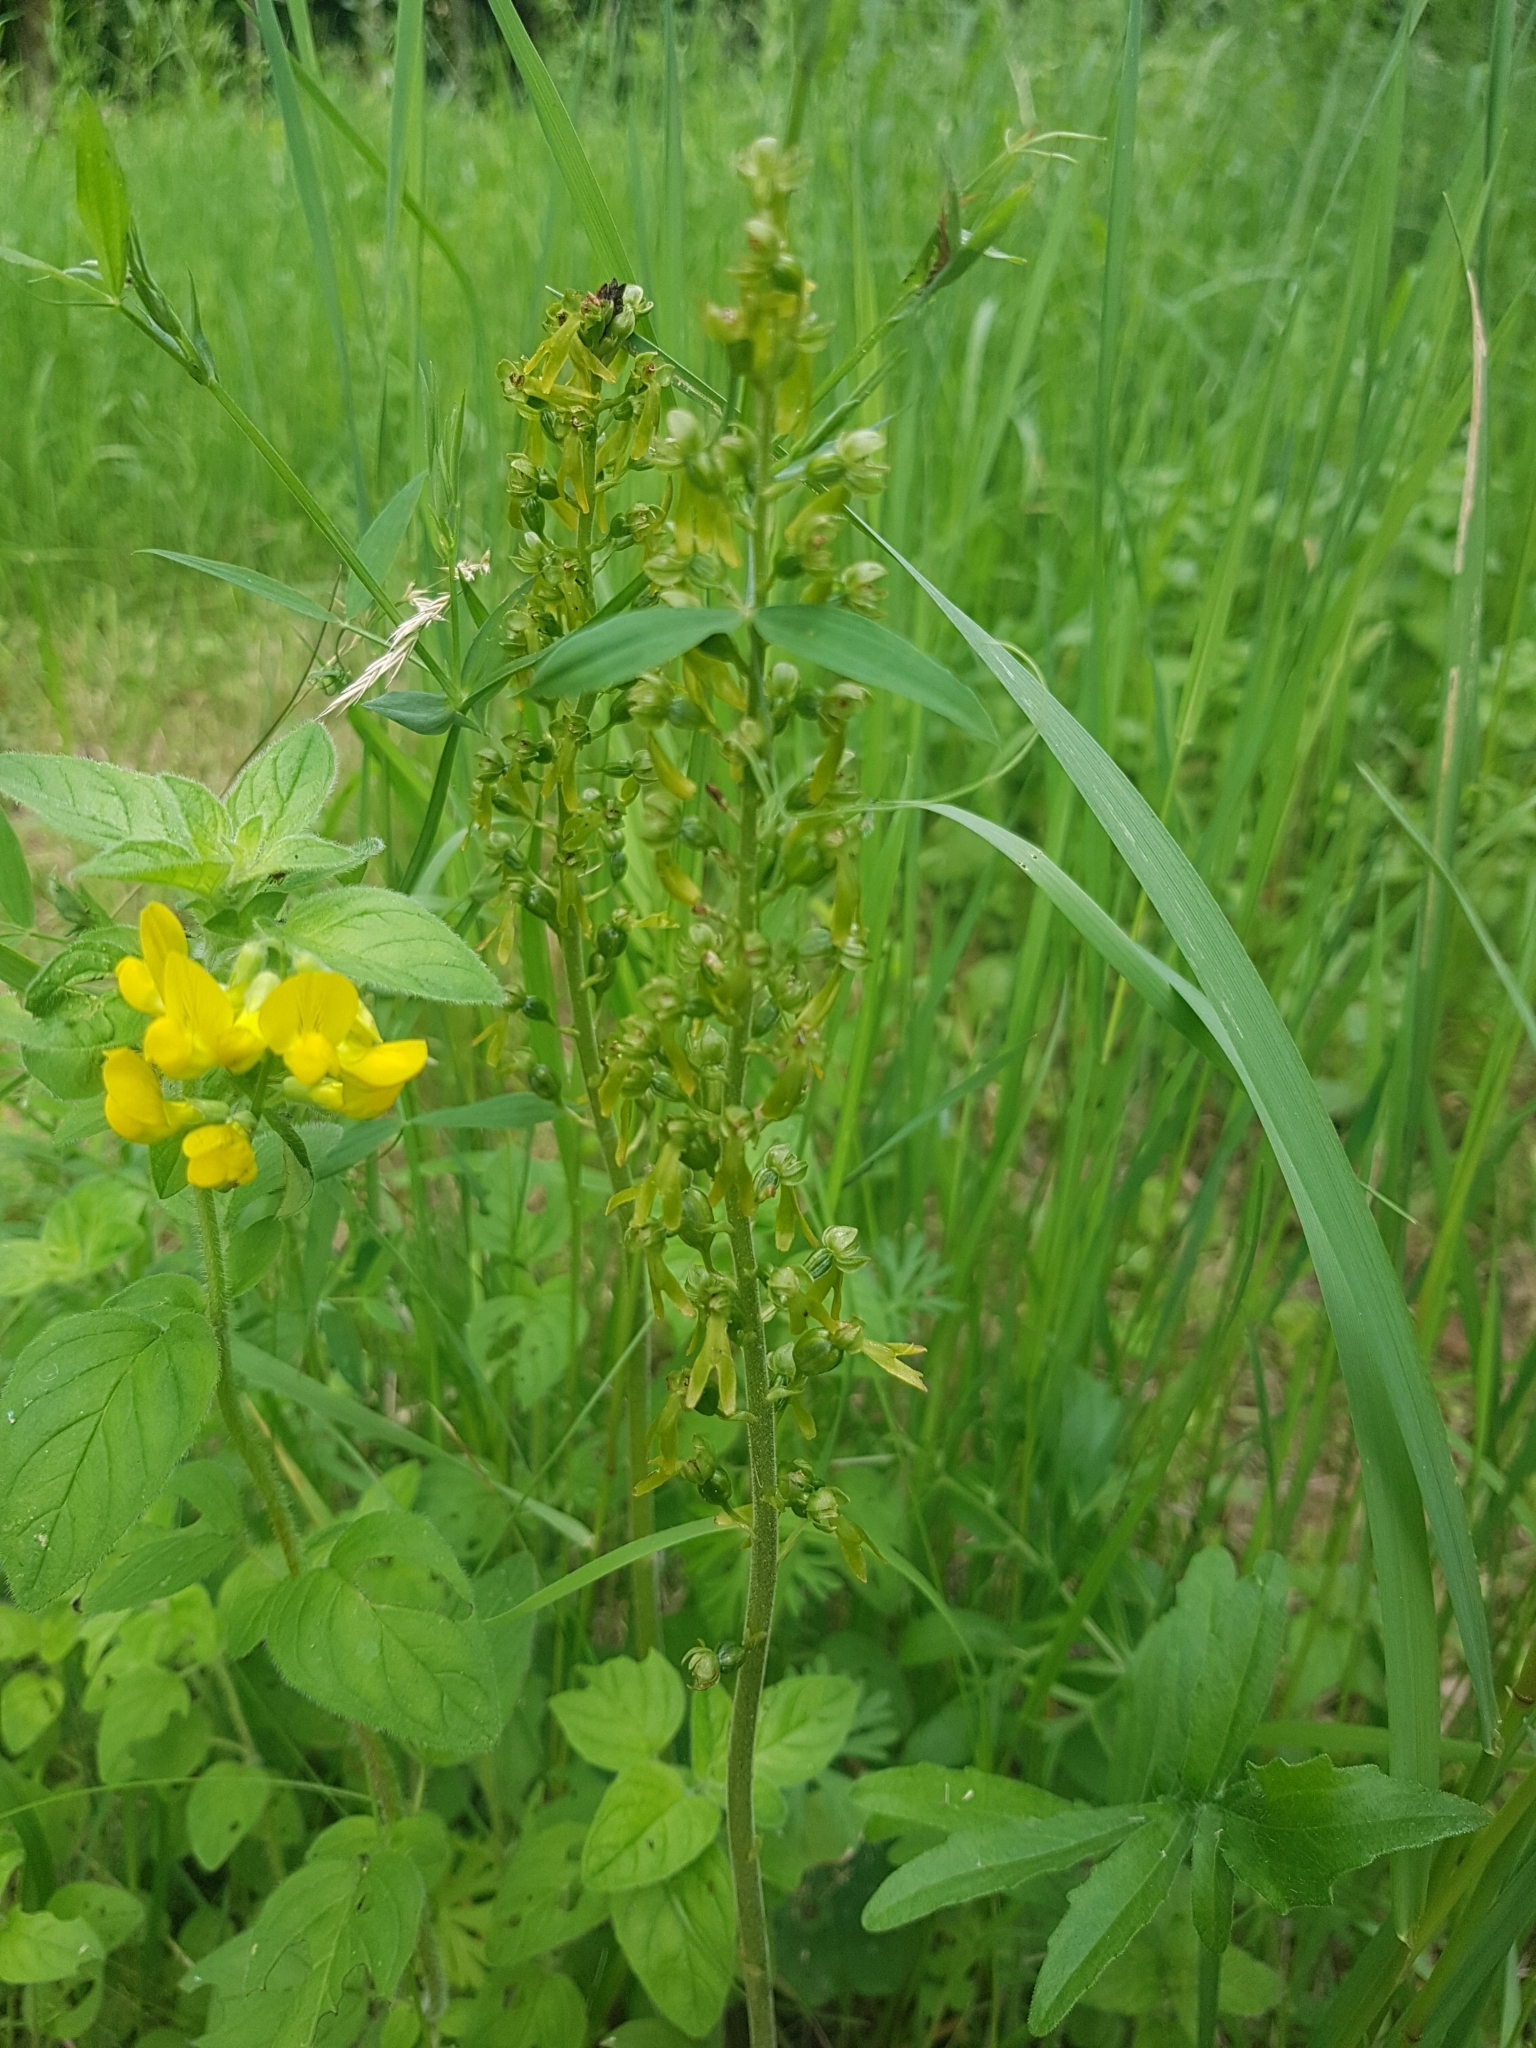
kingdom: Plantae
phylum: Tracheophyta
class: Liliopsida
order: Asparagales
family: Orchidaceae
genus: Neottia
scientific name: Neottia ovata
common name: Common twayblade
